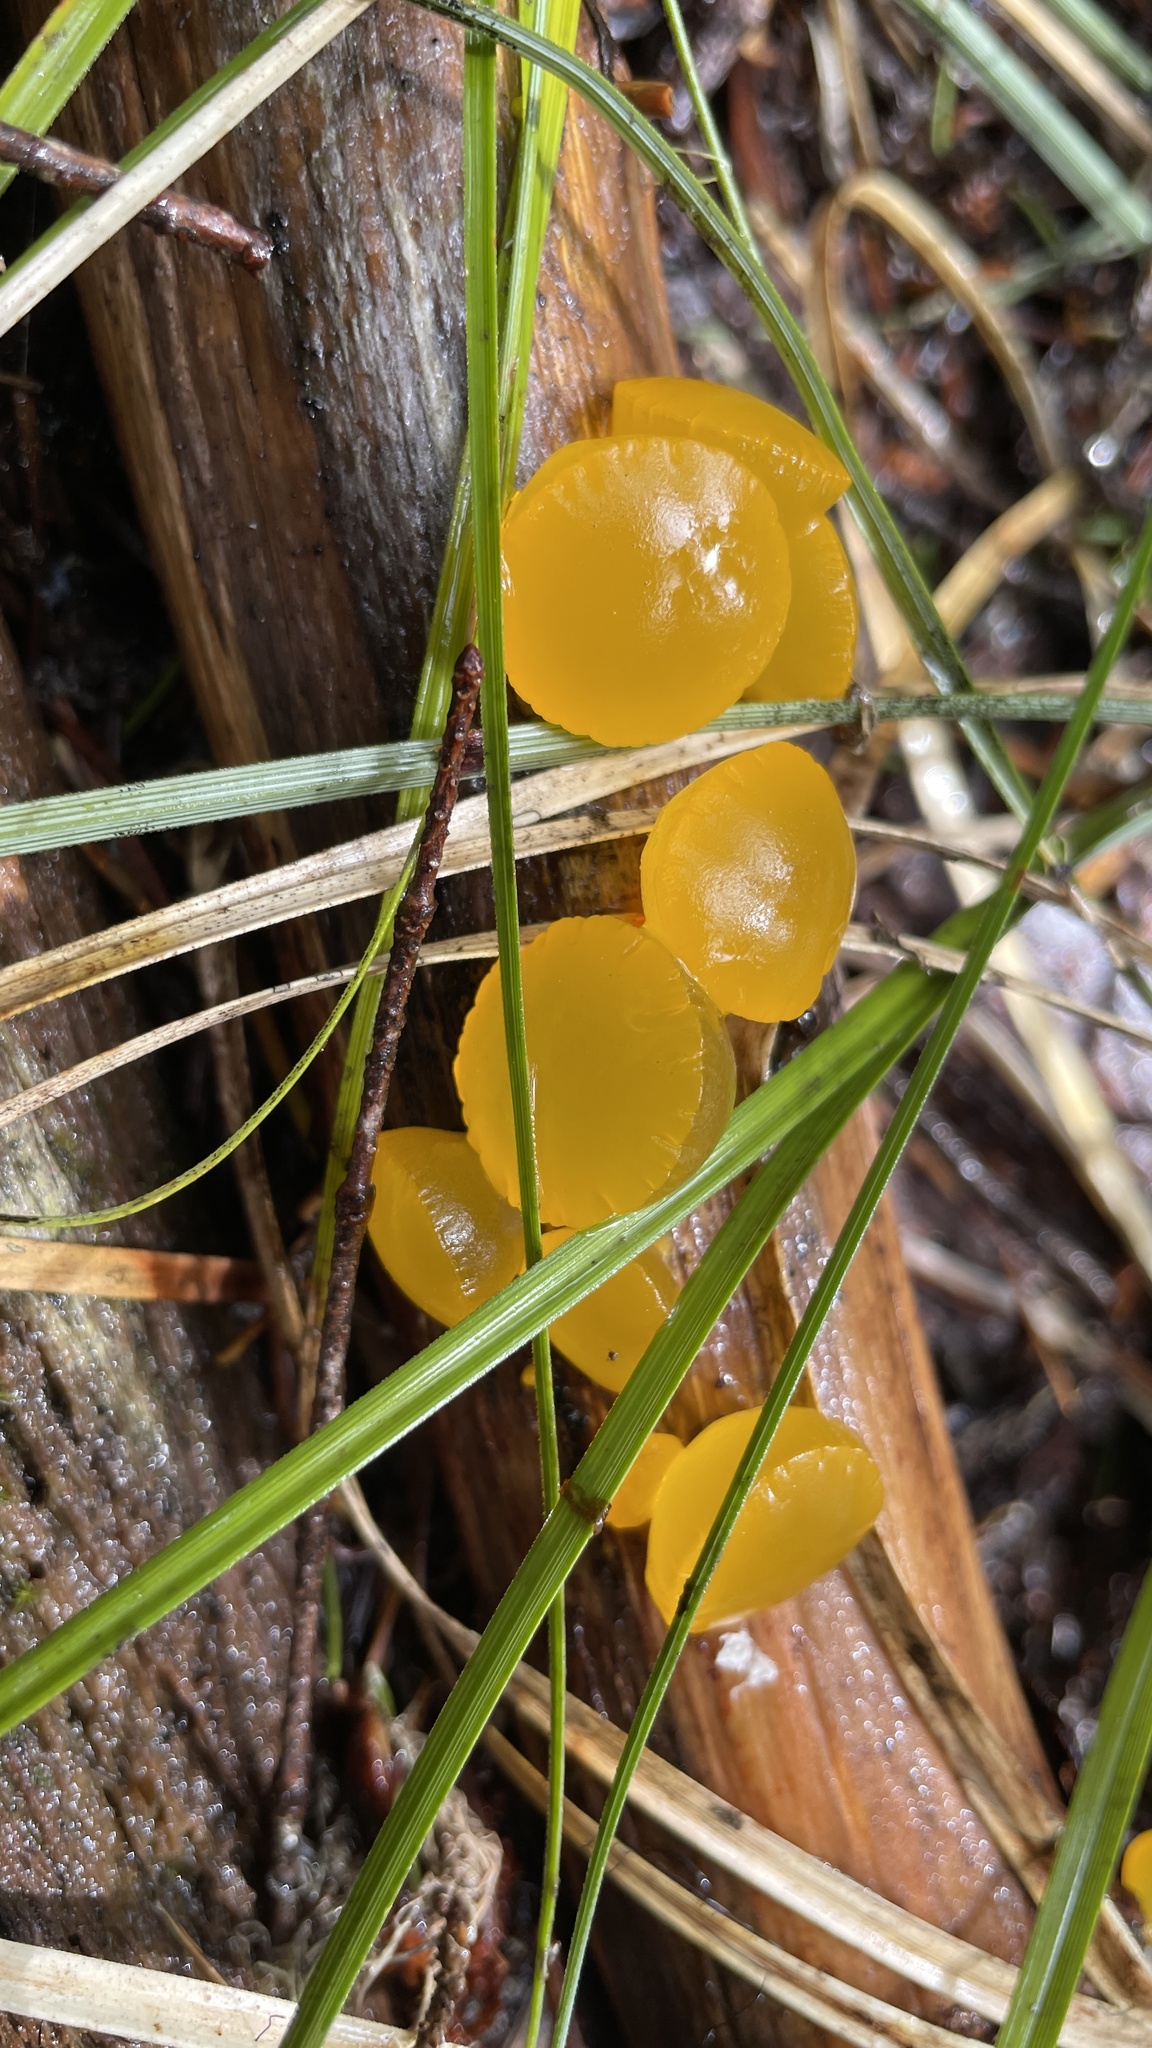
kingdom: Fungi
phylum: Basidiomycota
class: Dacrymycetes
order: Dacrymycetales
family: Dacrymycetaceae
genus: Guepiniopsis
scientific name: Guepiniopsis alpina
